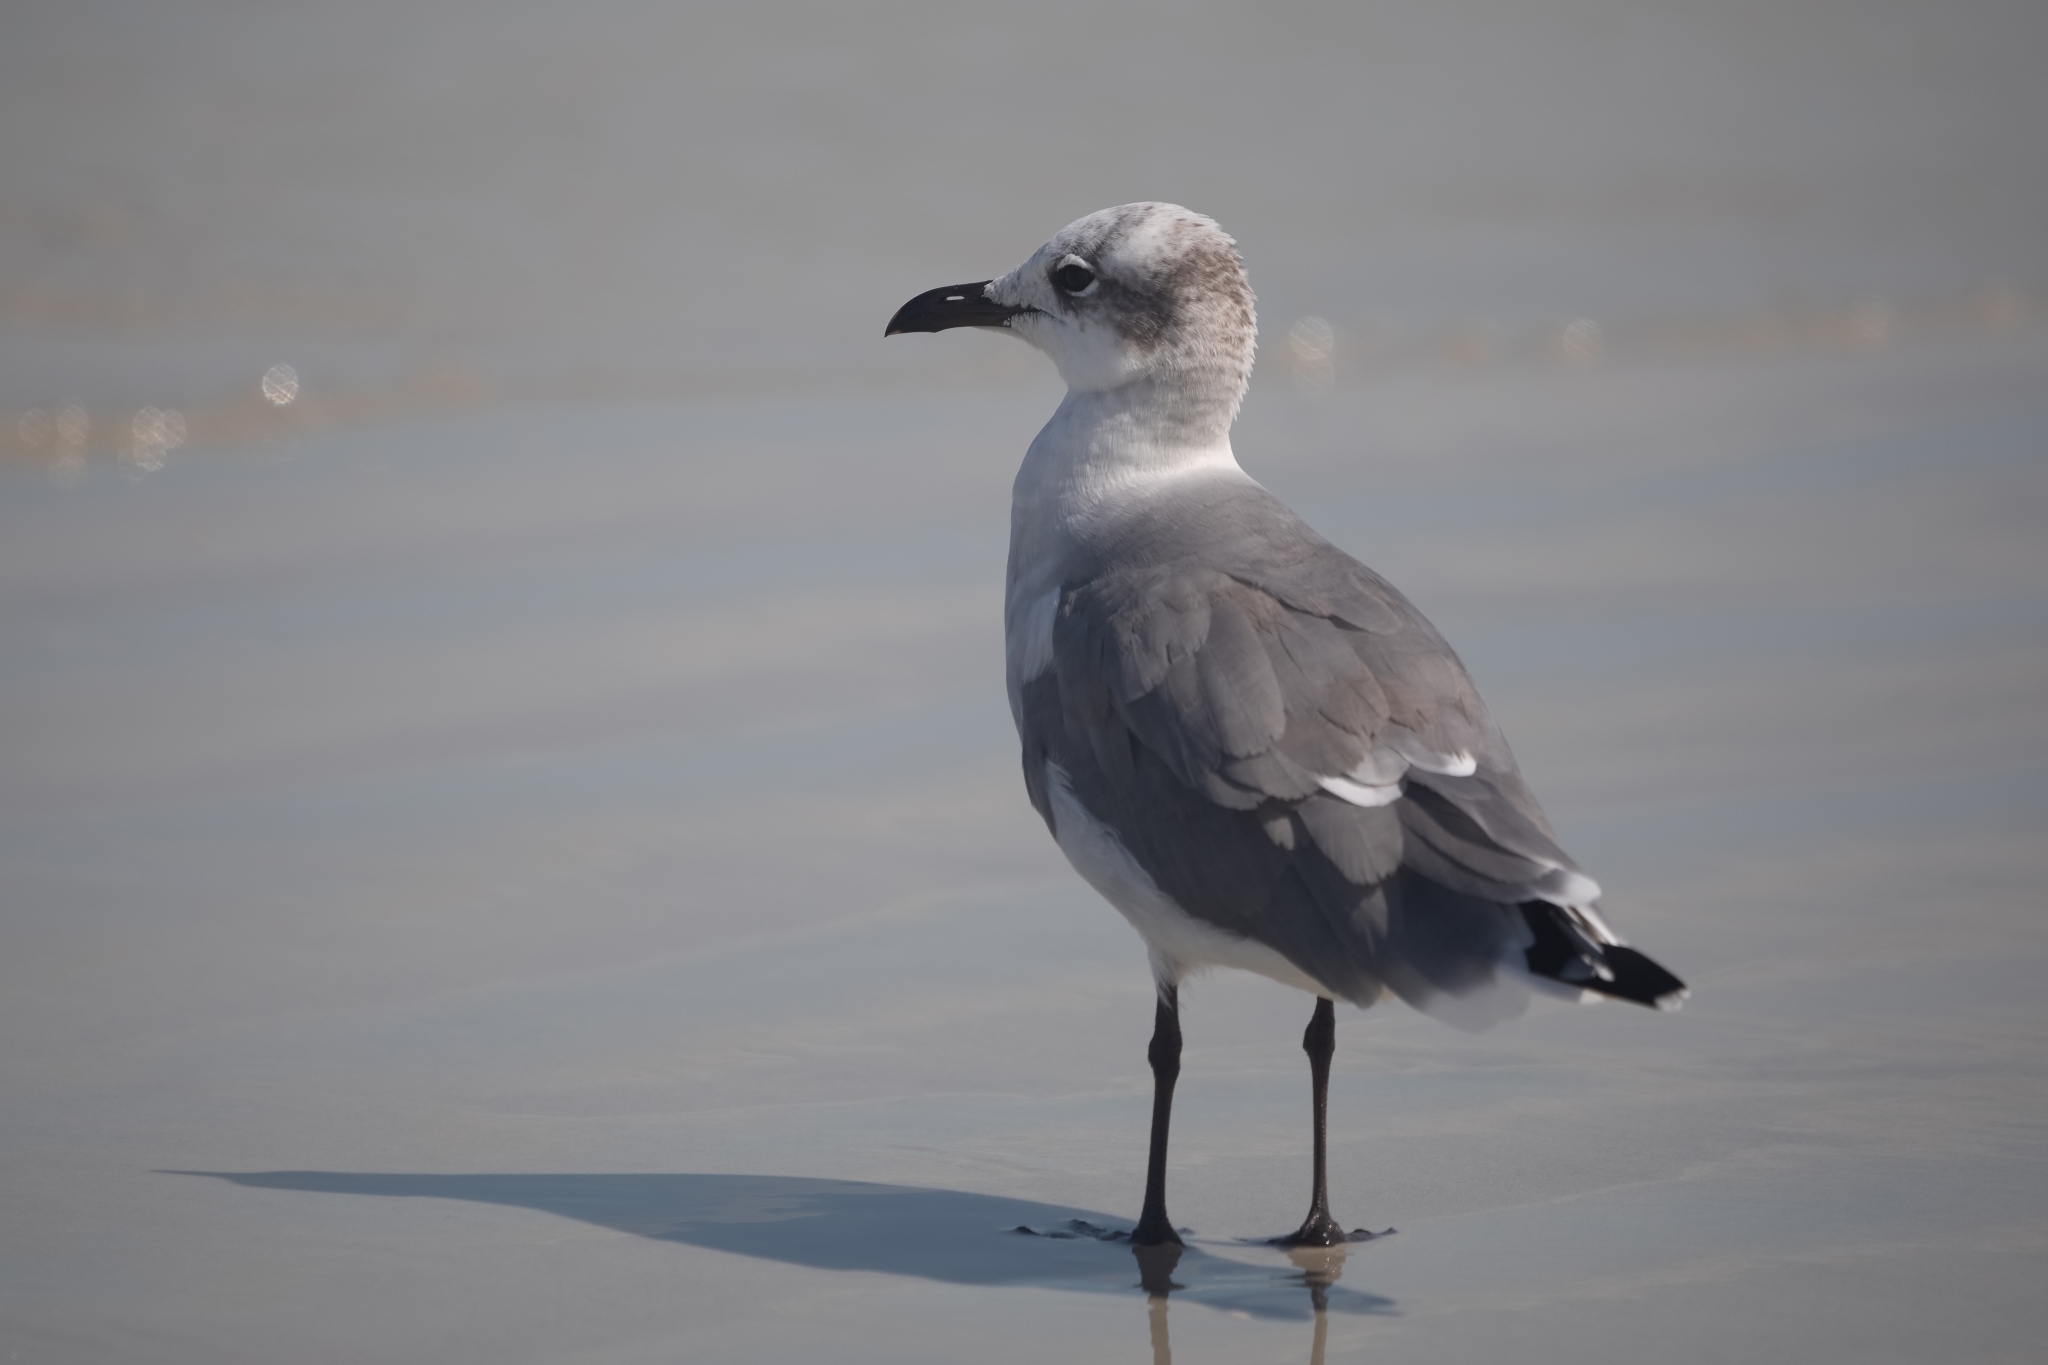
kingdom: Animalia
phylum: Chordata
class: Aves
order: Charadriiformes
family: Laridae
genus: Leucophaeus
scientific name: Leucophaeus atricilla
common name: Laughing gull
